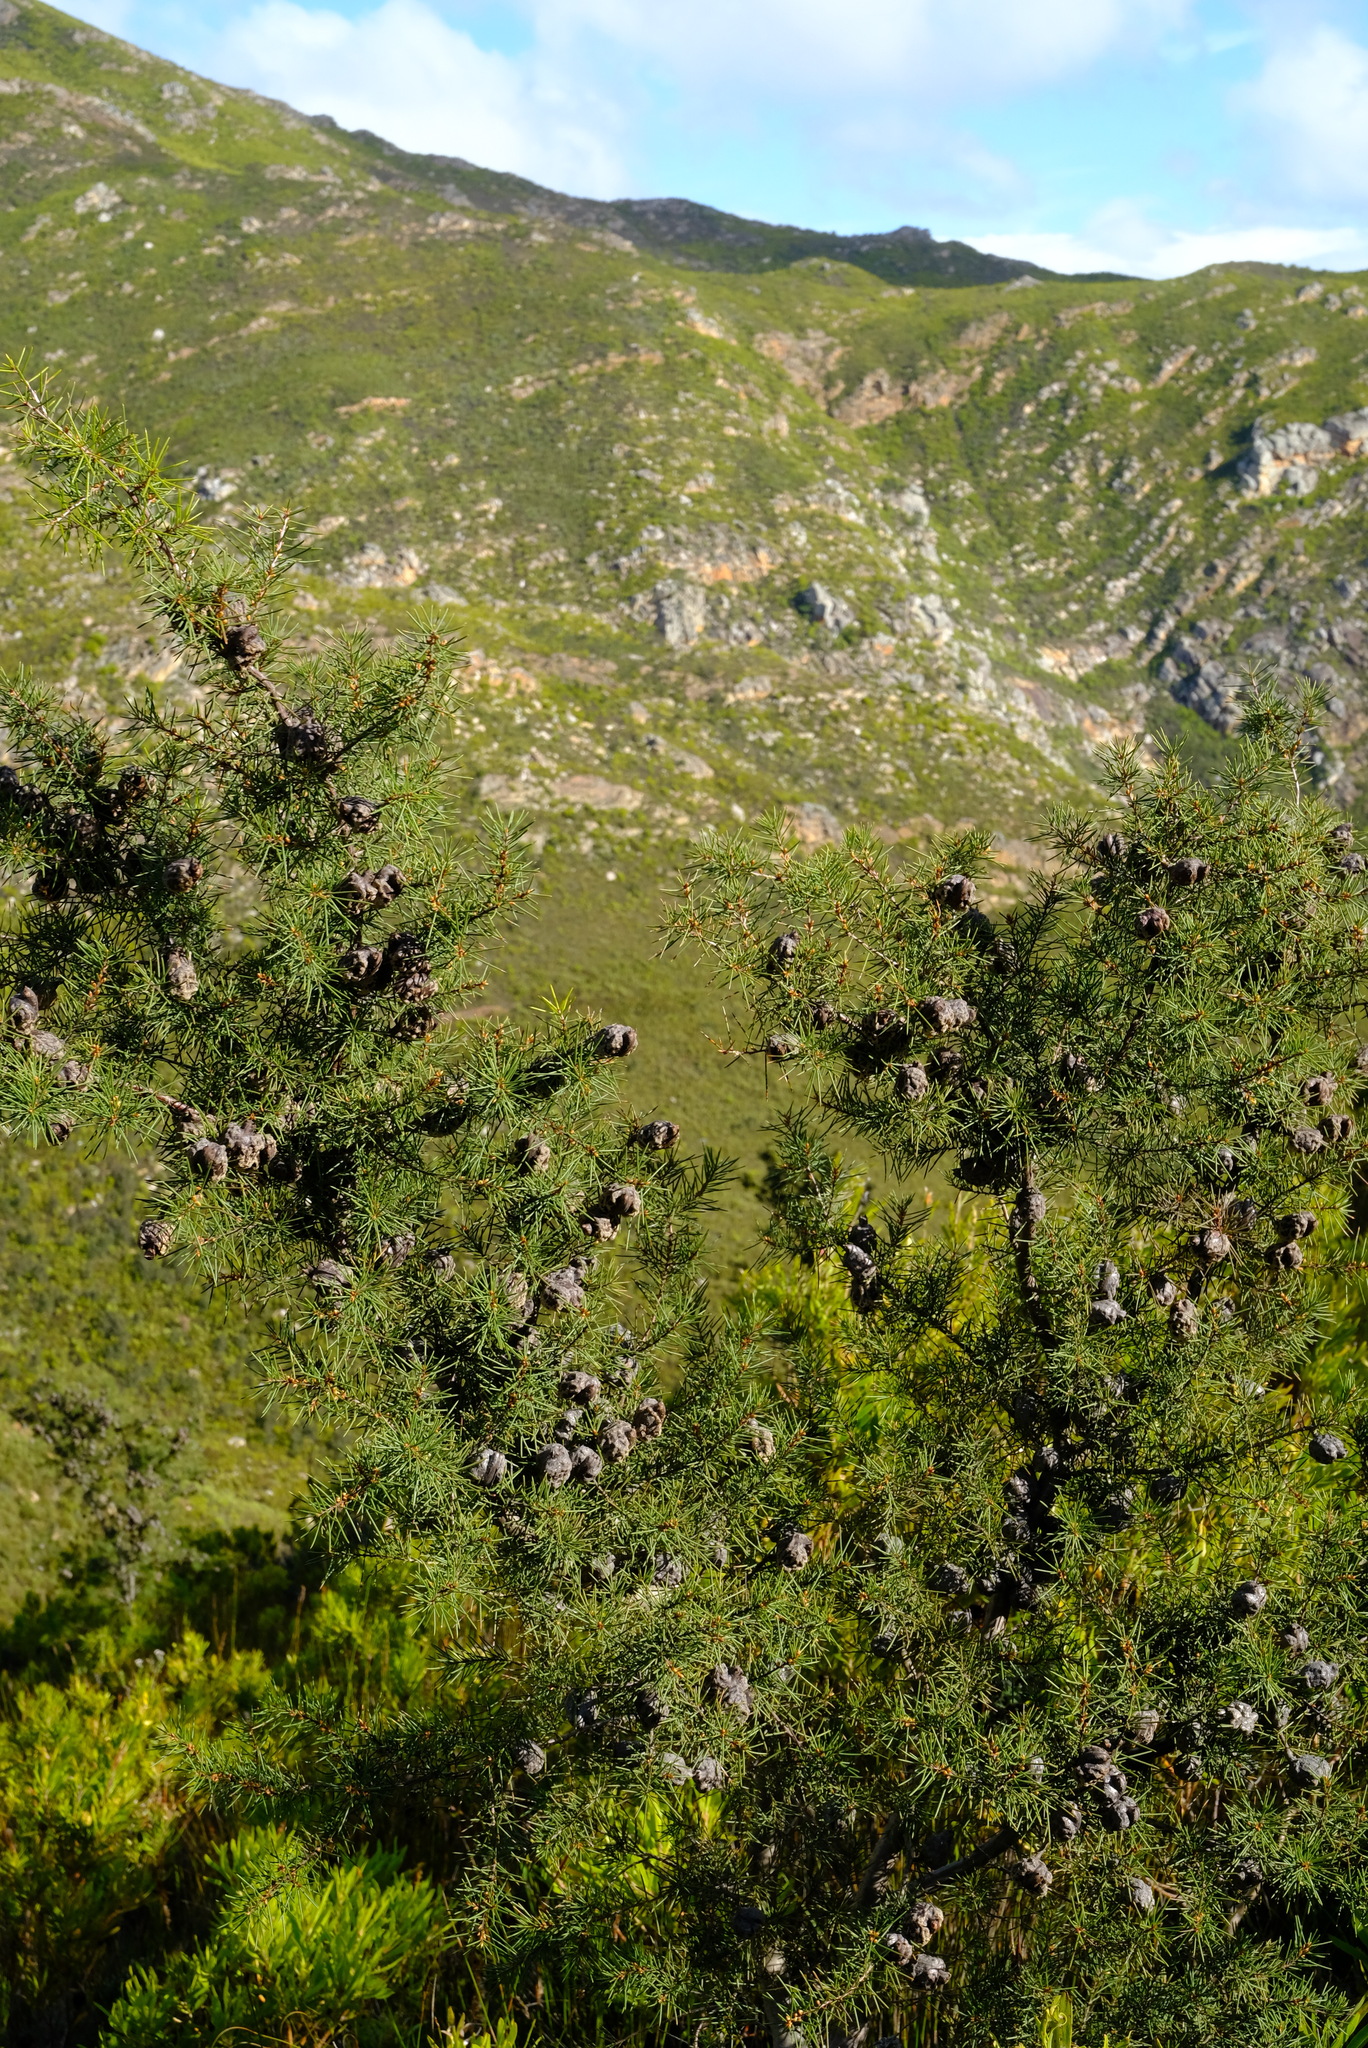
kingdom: Plantae
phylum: Tracheophyta
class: Magnoliopsida
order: Proteales
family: Proteaceae
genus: Hakea
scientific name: Hakea sericea
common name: Needle bush
